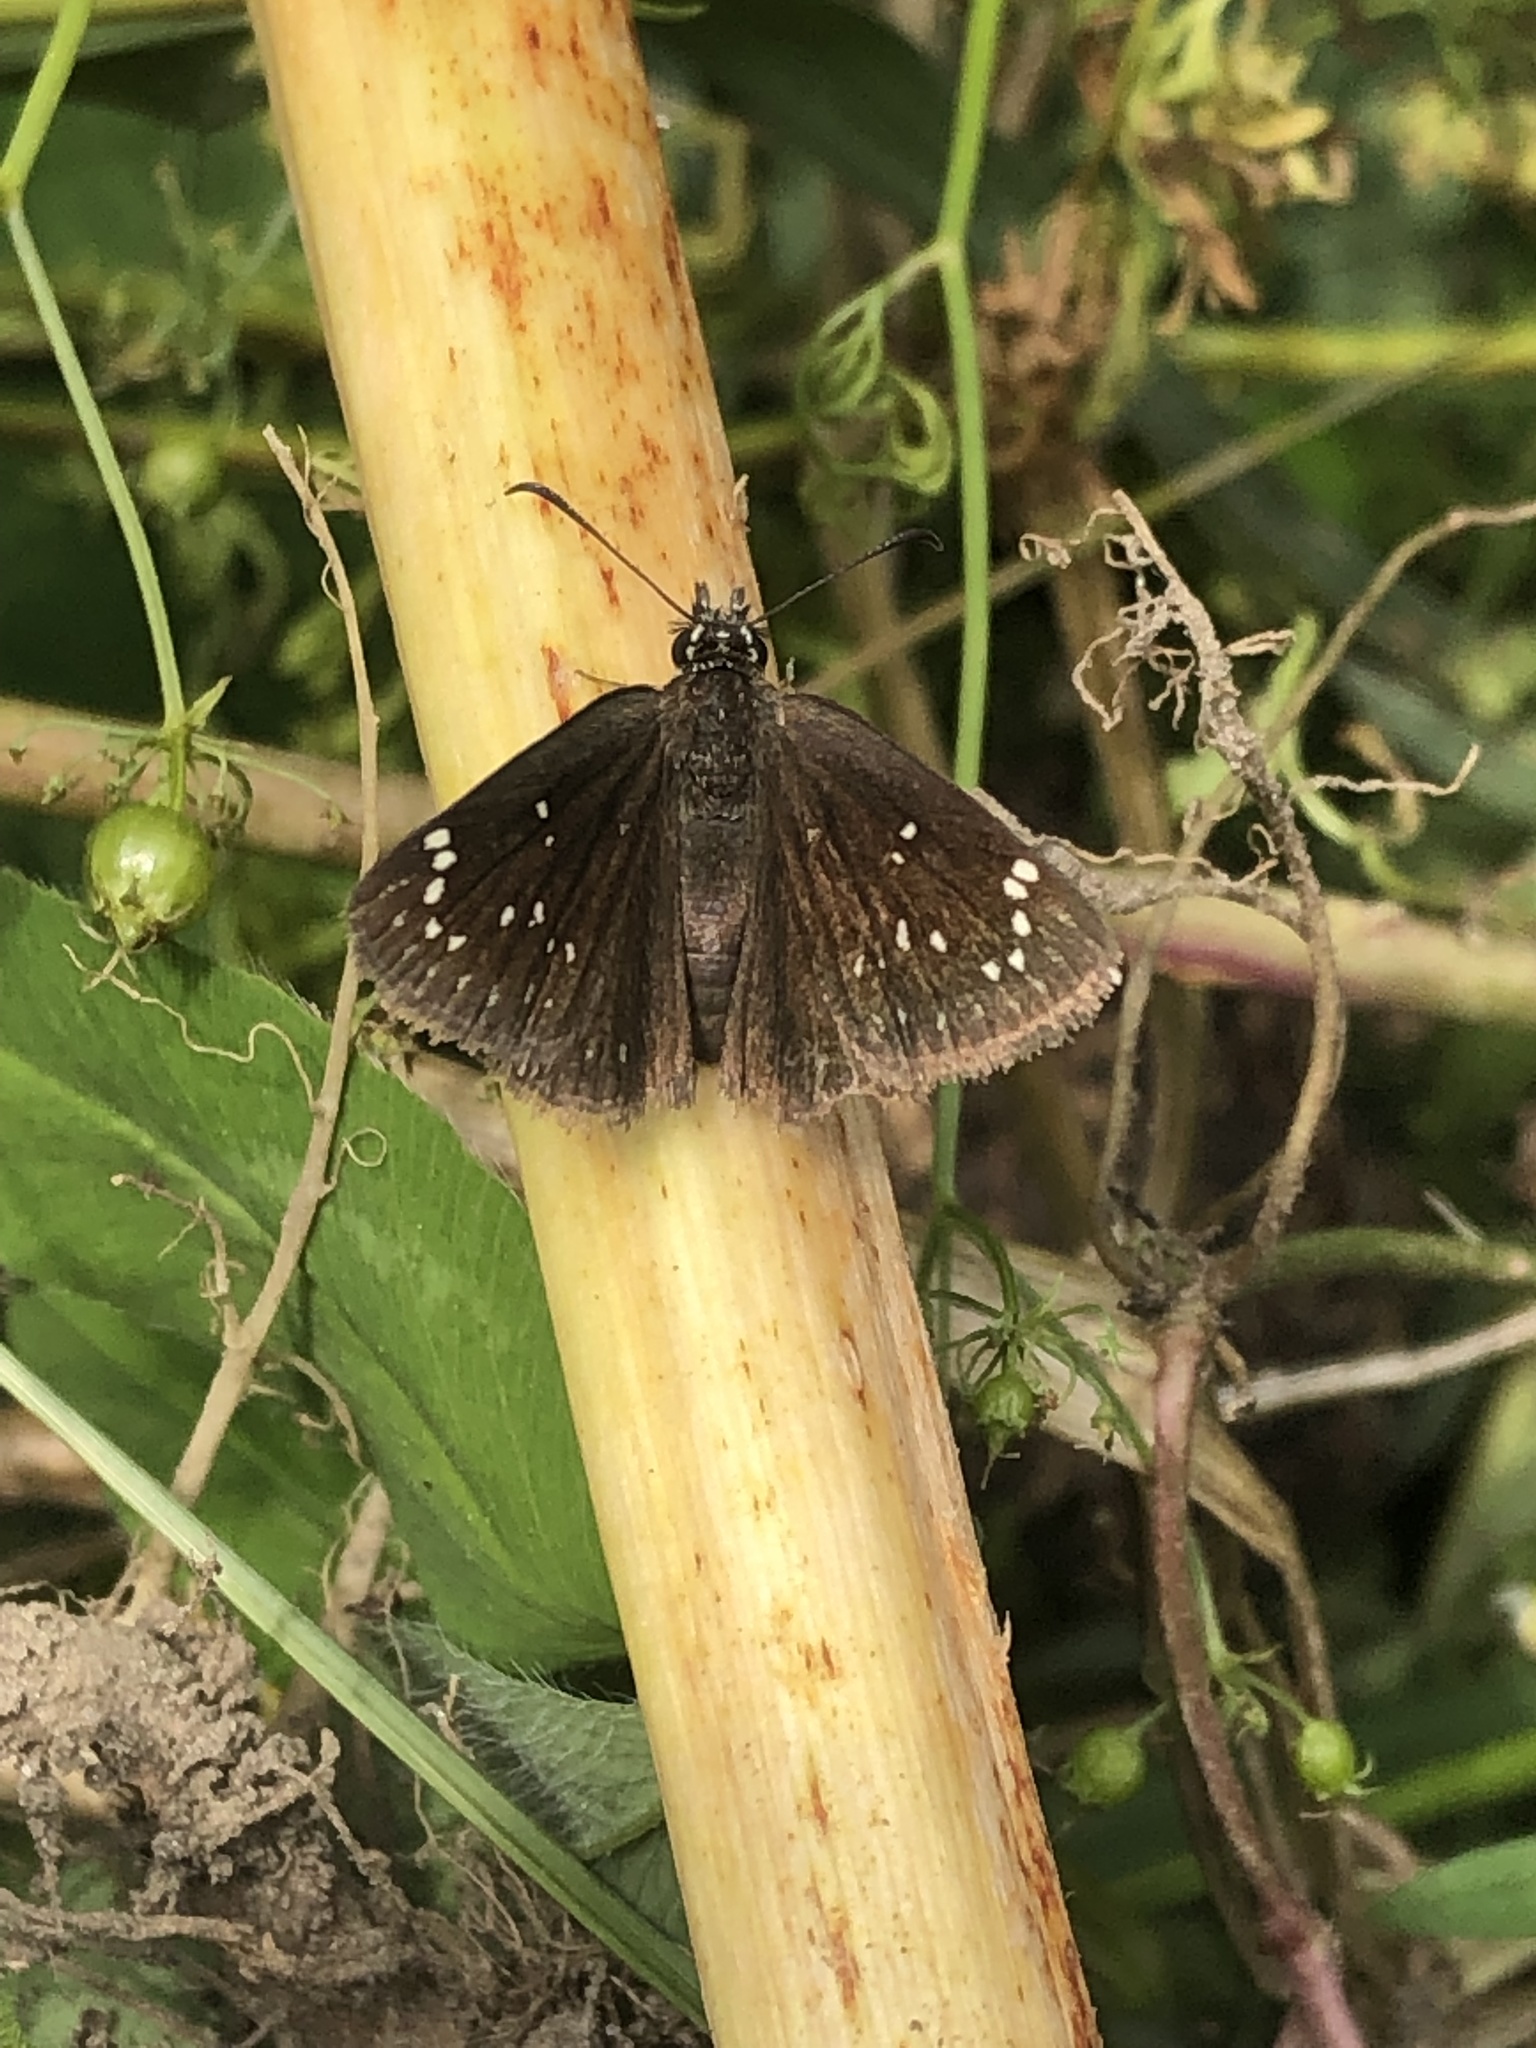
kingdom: Animalia
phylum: Arthropoda
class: Insecta
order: Lepidoptera
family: Hesperiidae
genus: Pholisora
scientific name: Pholisora catullus
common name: Common sootywing
